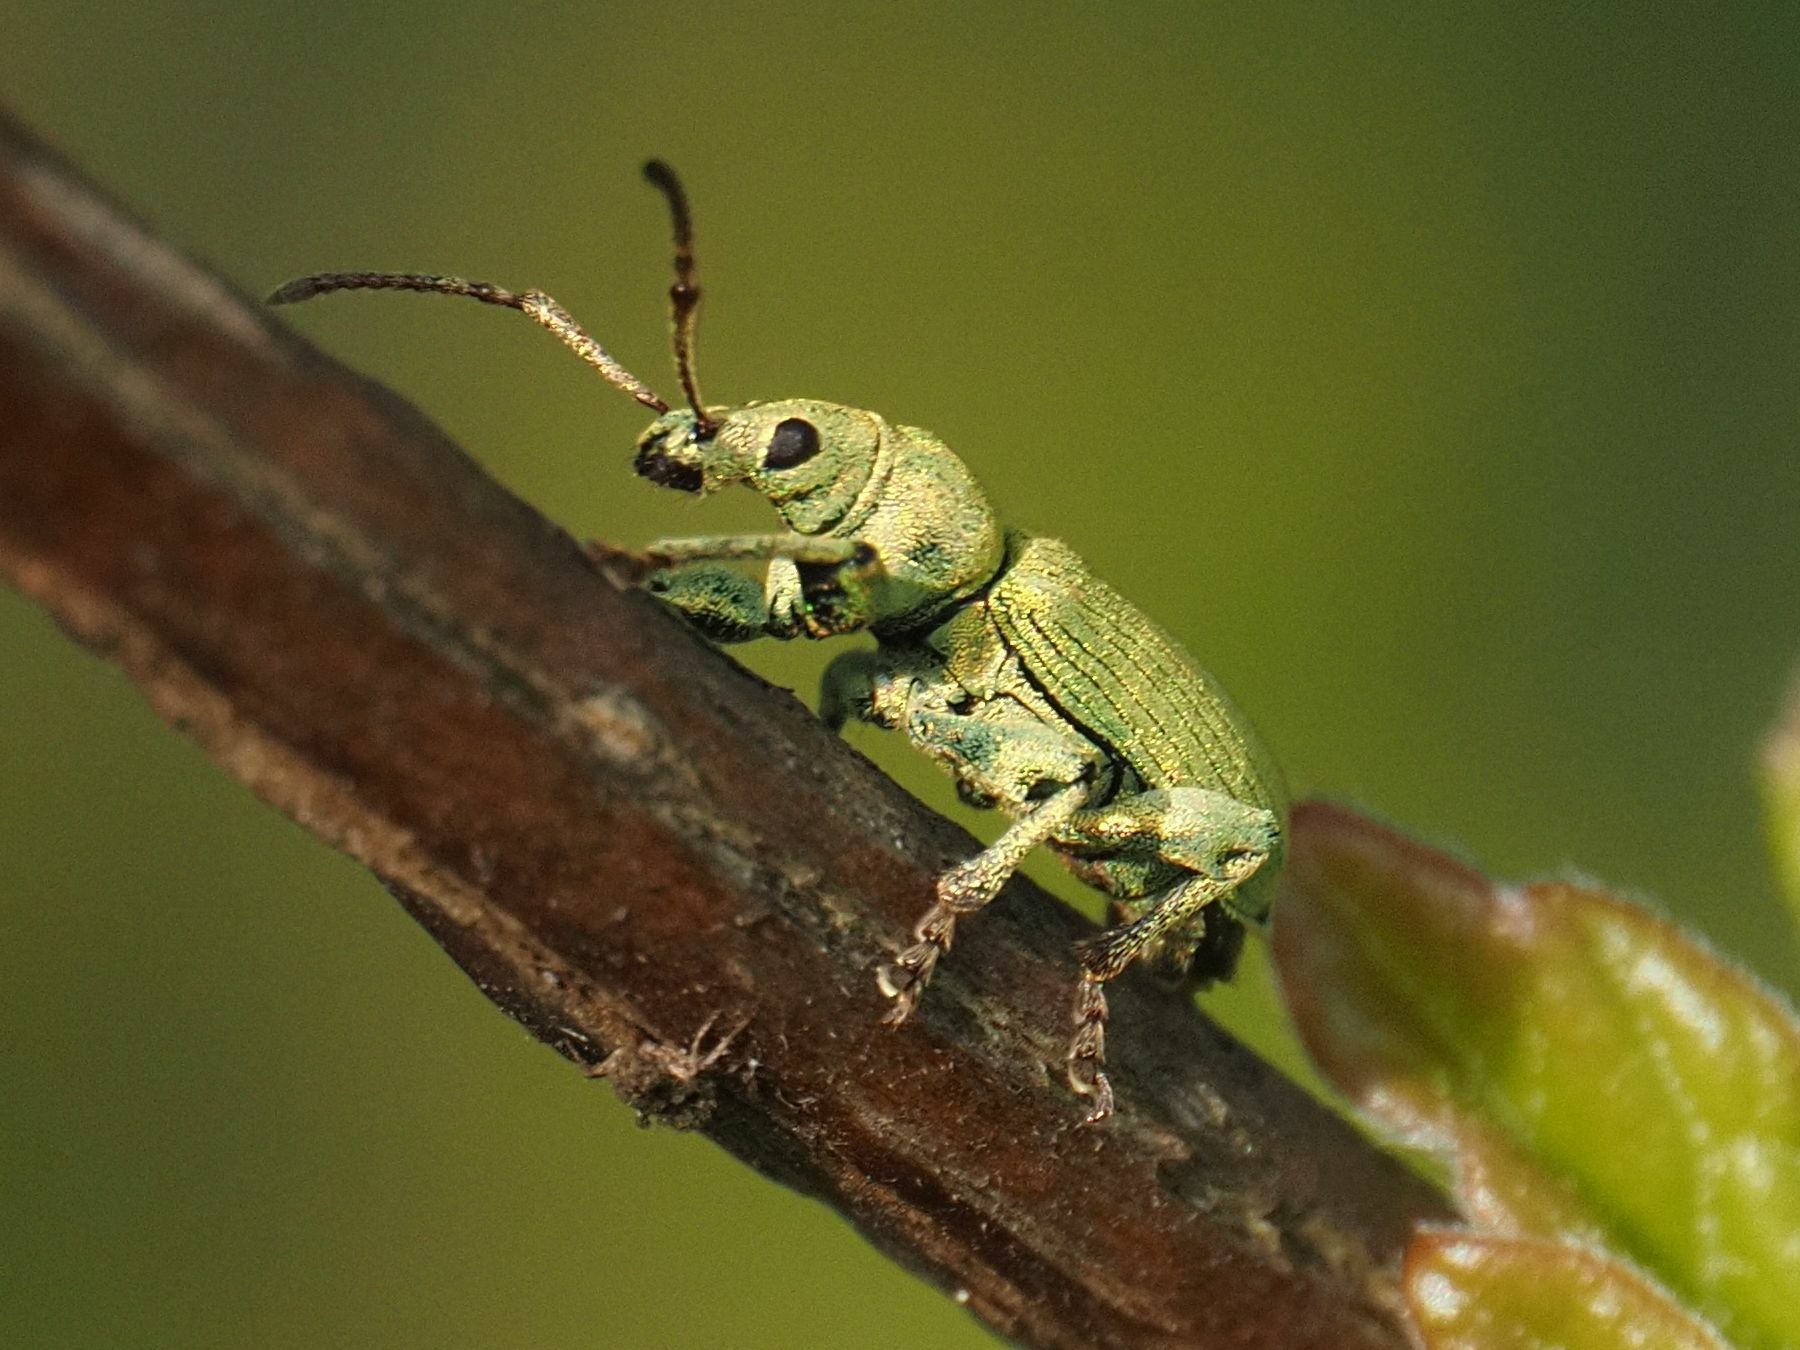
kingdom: Animalia
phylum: Arthropoda
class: Insecta
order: Coleoptera
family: Curculionidae
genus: Phyllobius
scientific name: Phyllobius maculicornis
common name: Green leaf weevil
